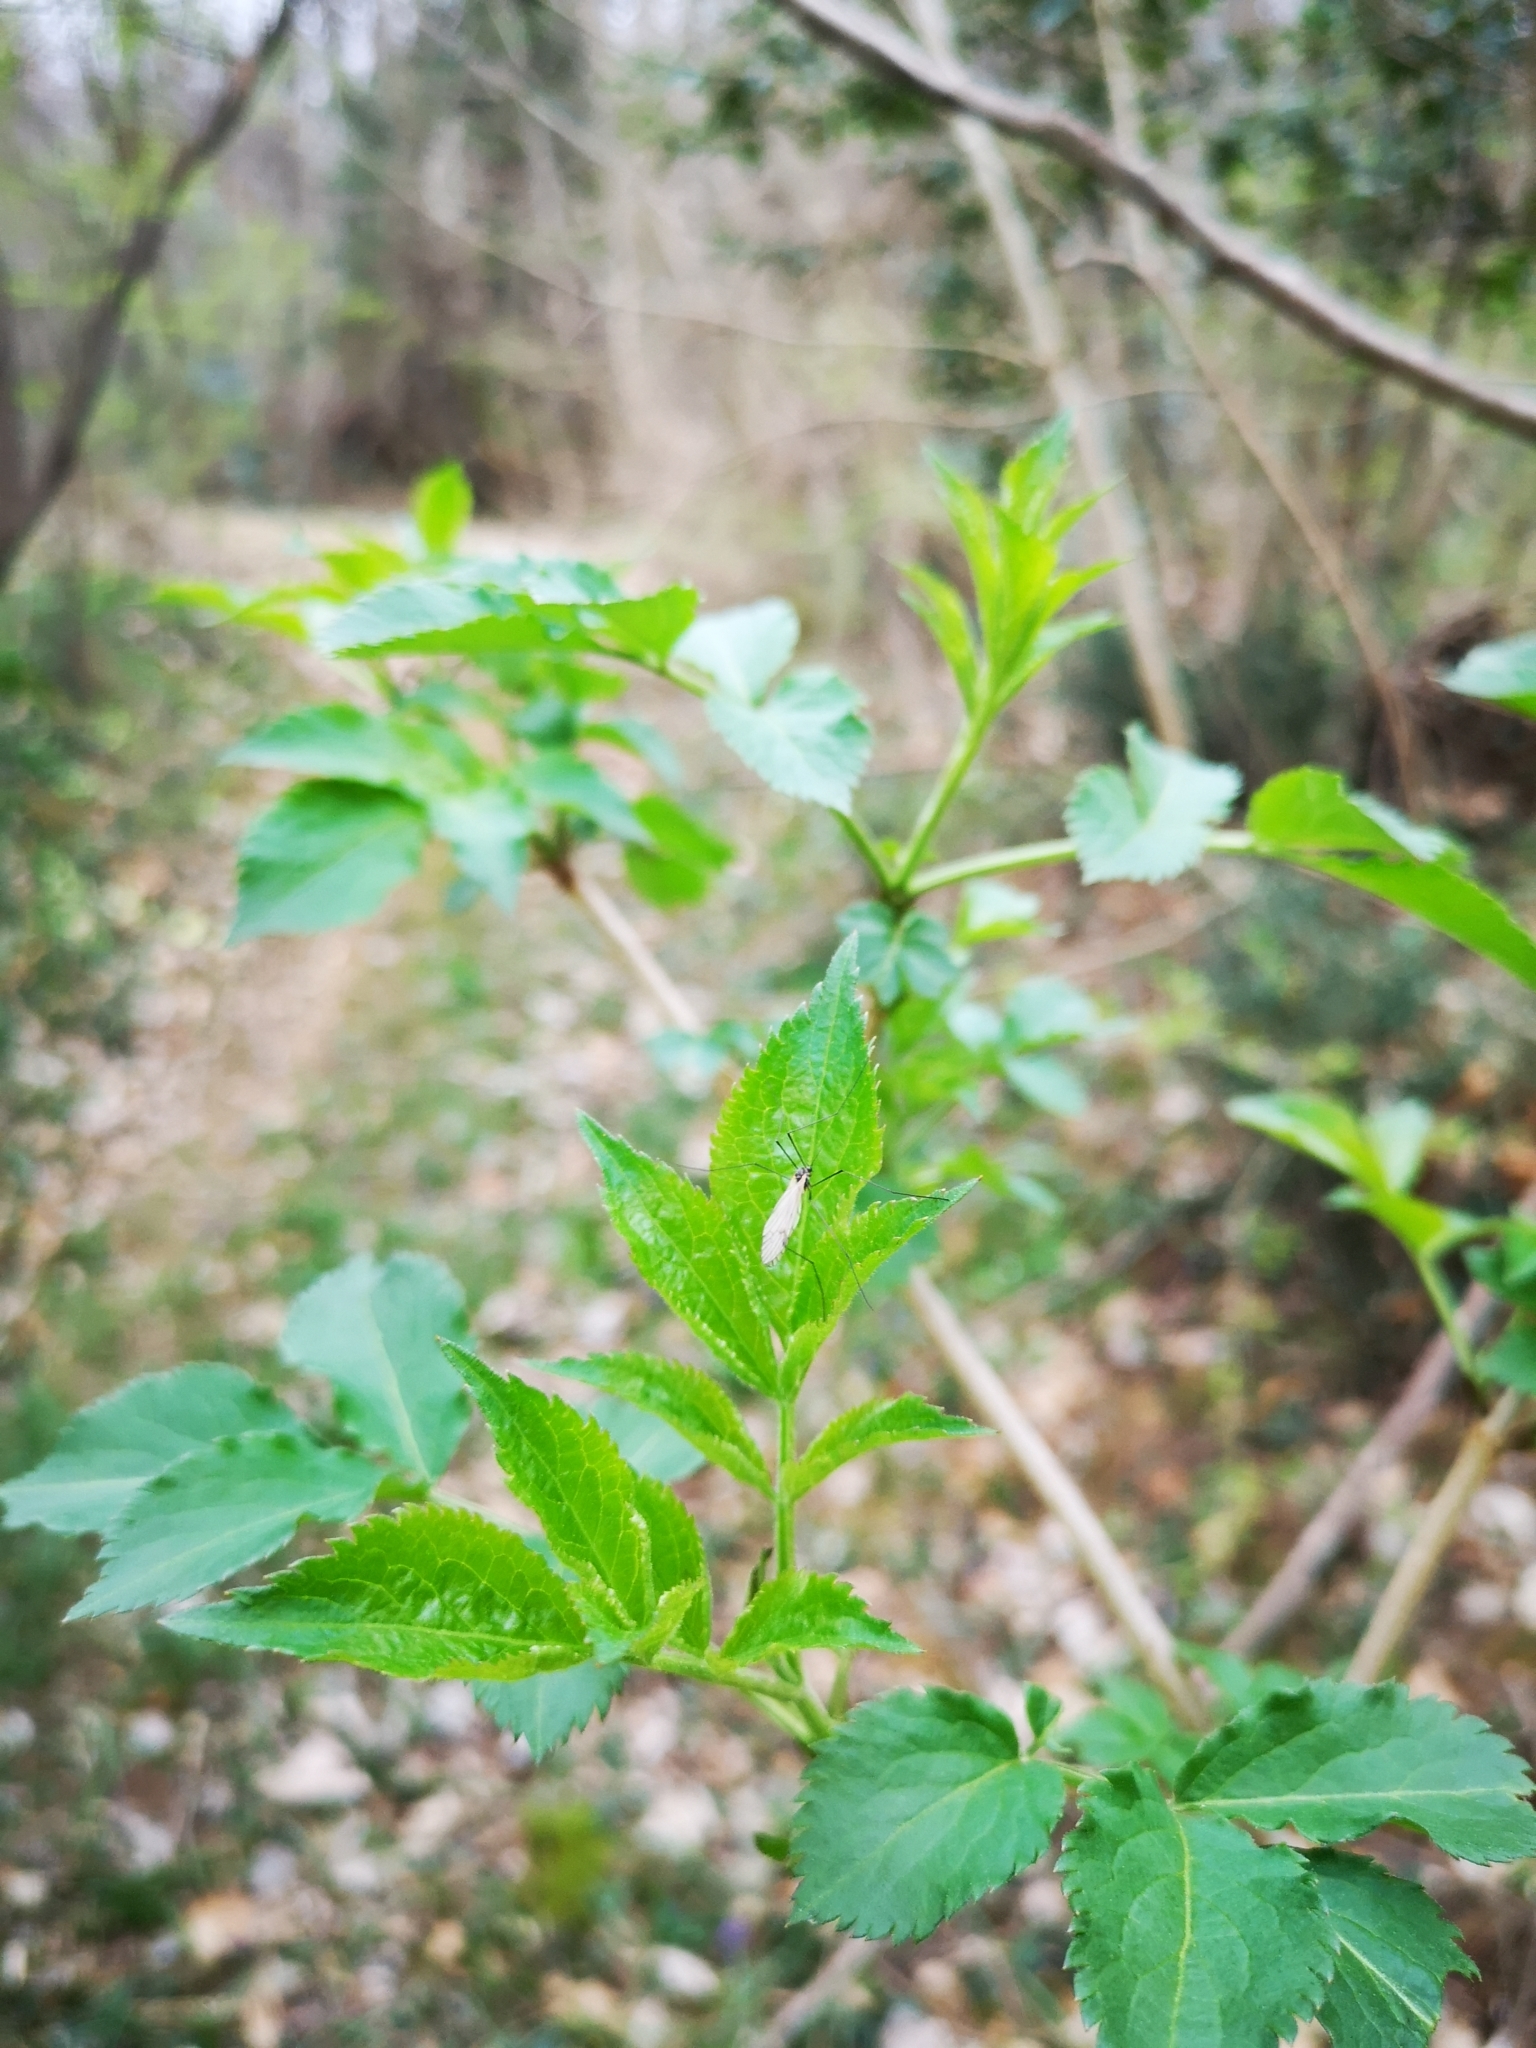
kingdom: Plantae
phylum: Tracheophyta
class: Magnoliopsida
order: Dipsacales
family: Viburnaceae
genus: Sambucus
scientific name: Sambucus nigra
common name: Elder
